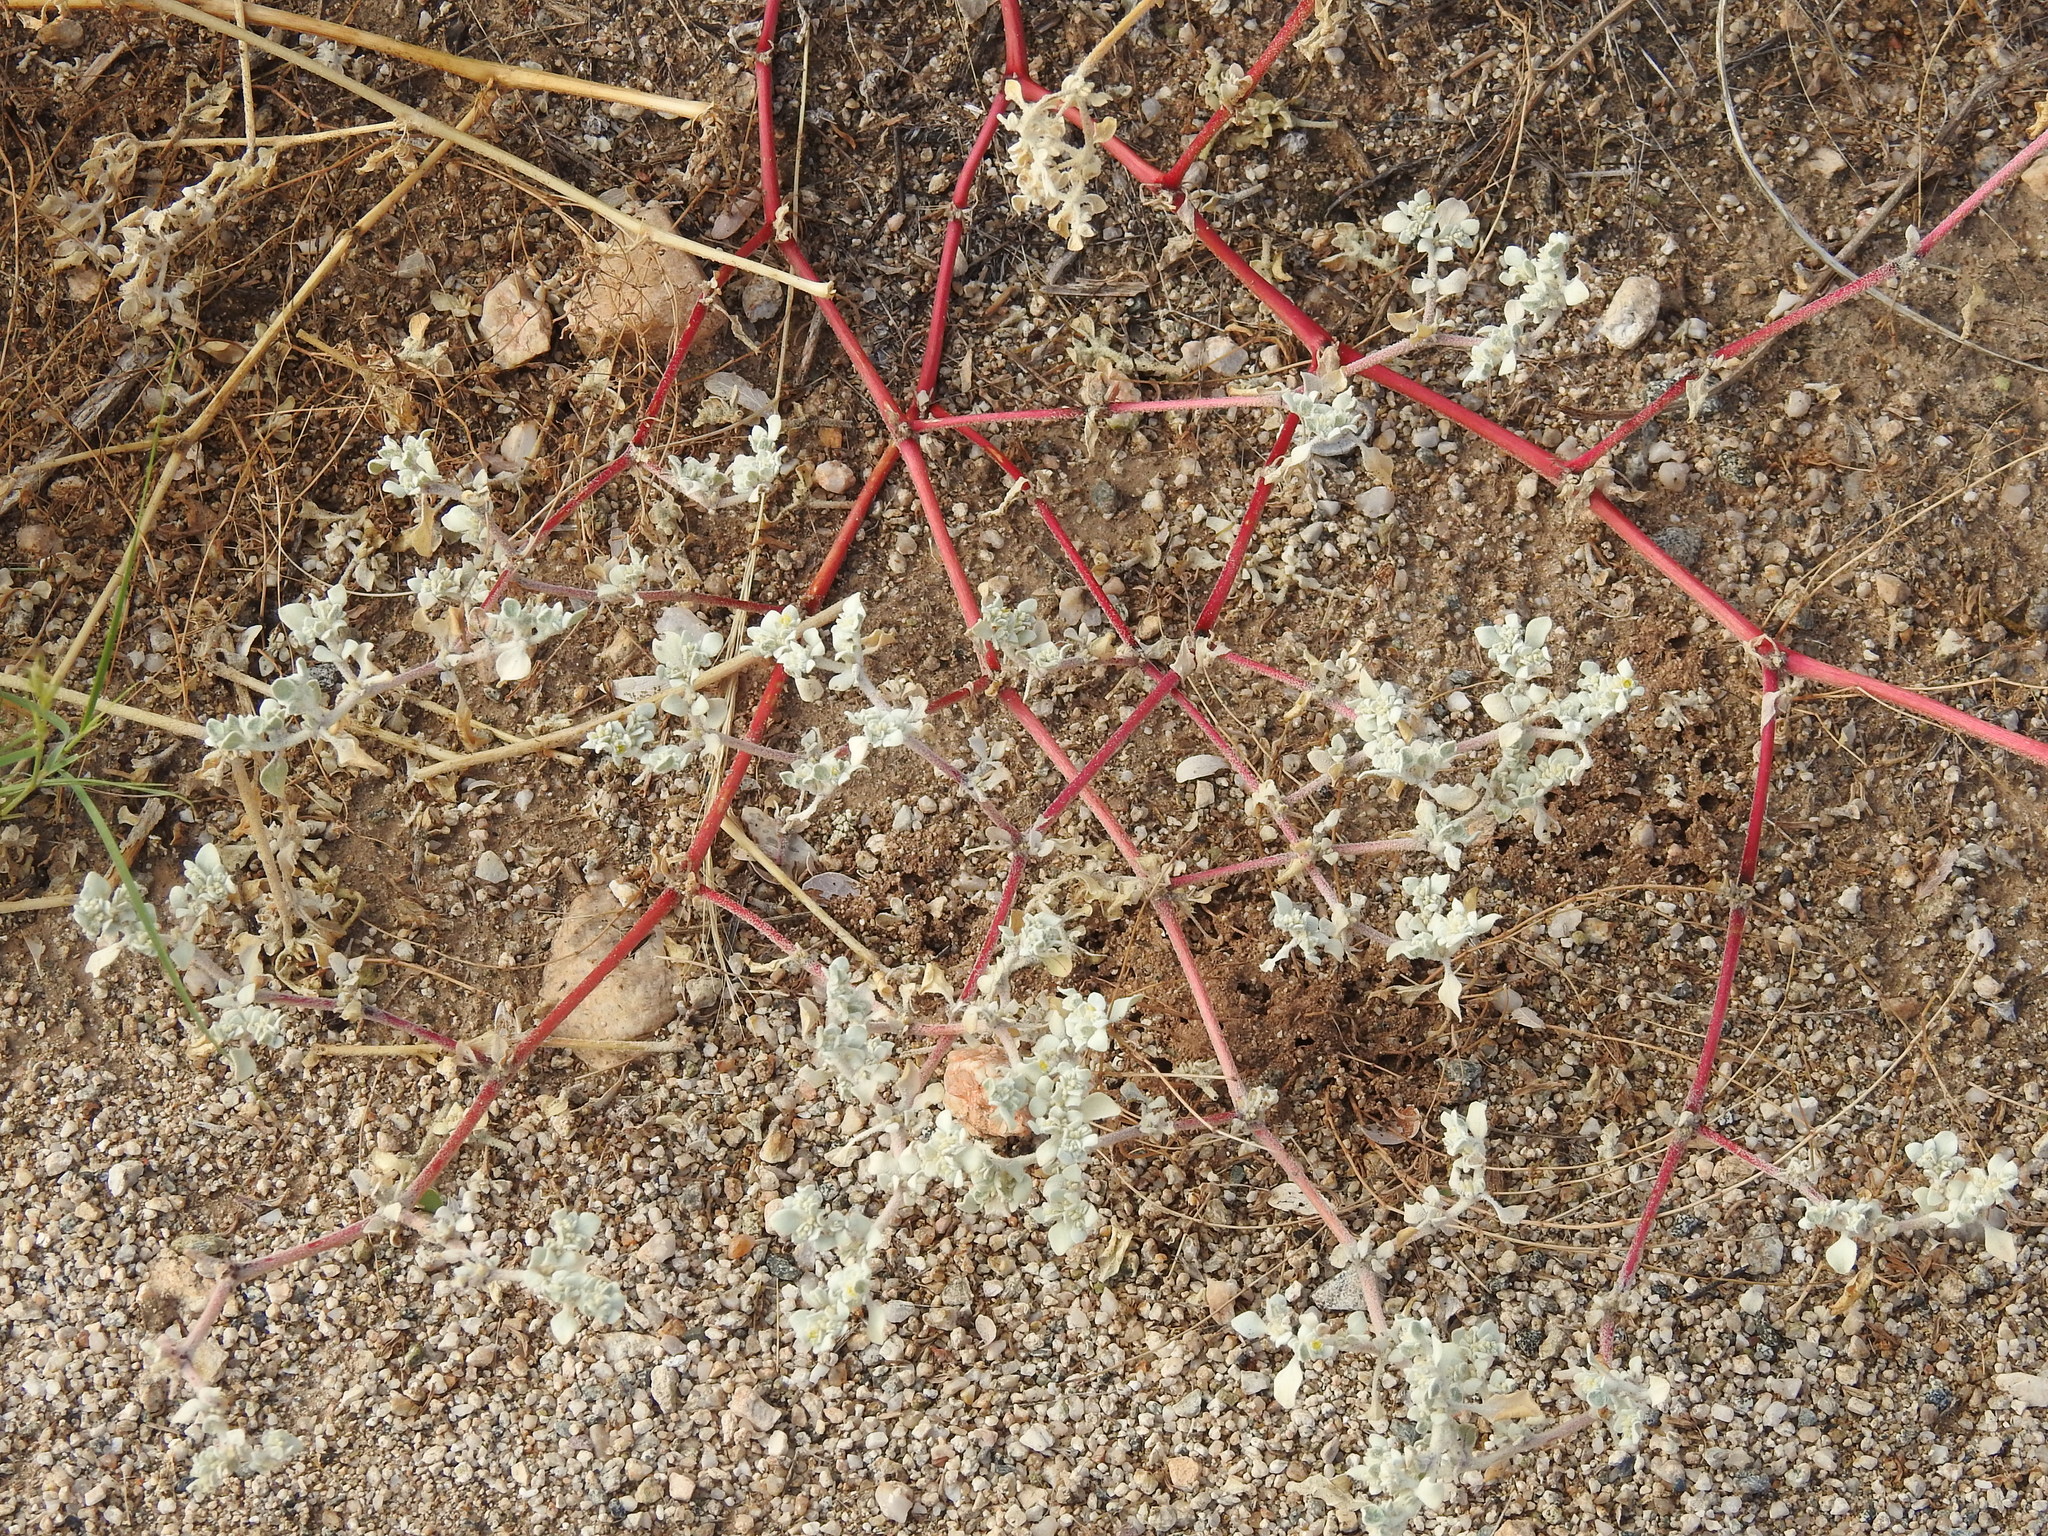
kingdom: Plantae
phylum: Tracheophyta
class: Magnoliopsida
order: Caryophyllales
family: Amaranthaceae
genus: Tidestromia
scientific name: Tidestromia lanuginosa
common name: Woolly tidestromia
